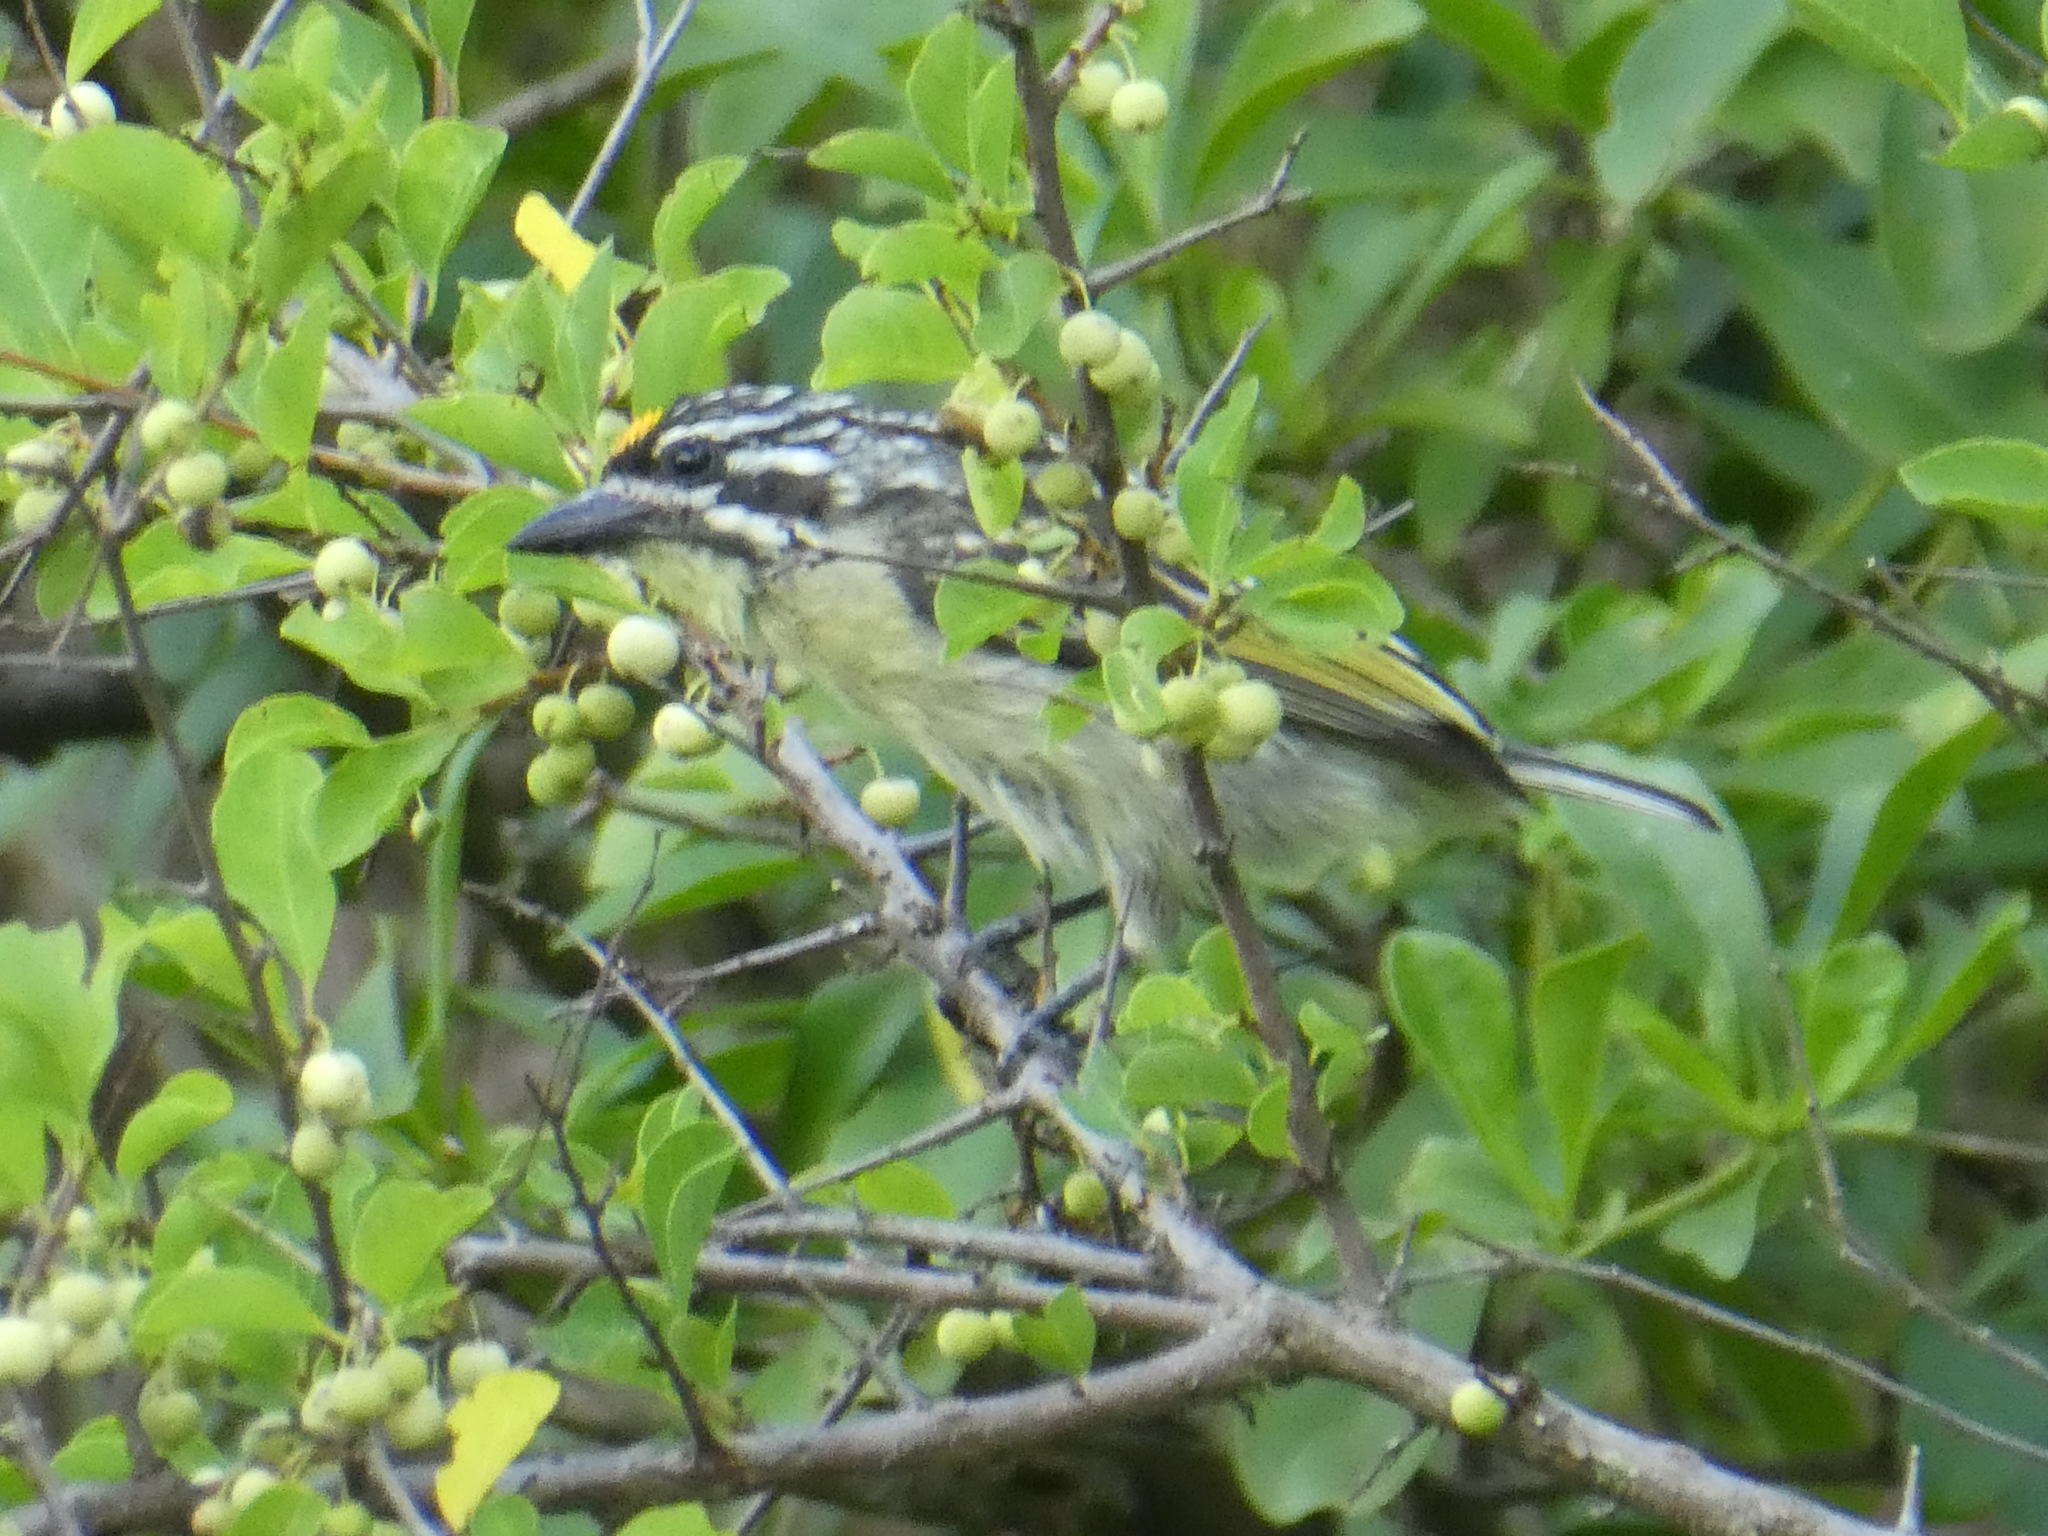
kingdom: Animalia
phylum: Chordata
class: Aves
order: Piciformes
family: Lybiidae
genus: Pogoniulus
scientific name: Pogoniulus chrysoconus
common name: Yellow-fronted tinkerbird
